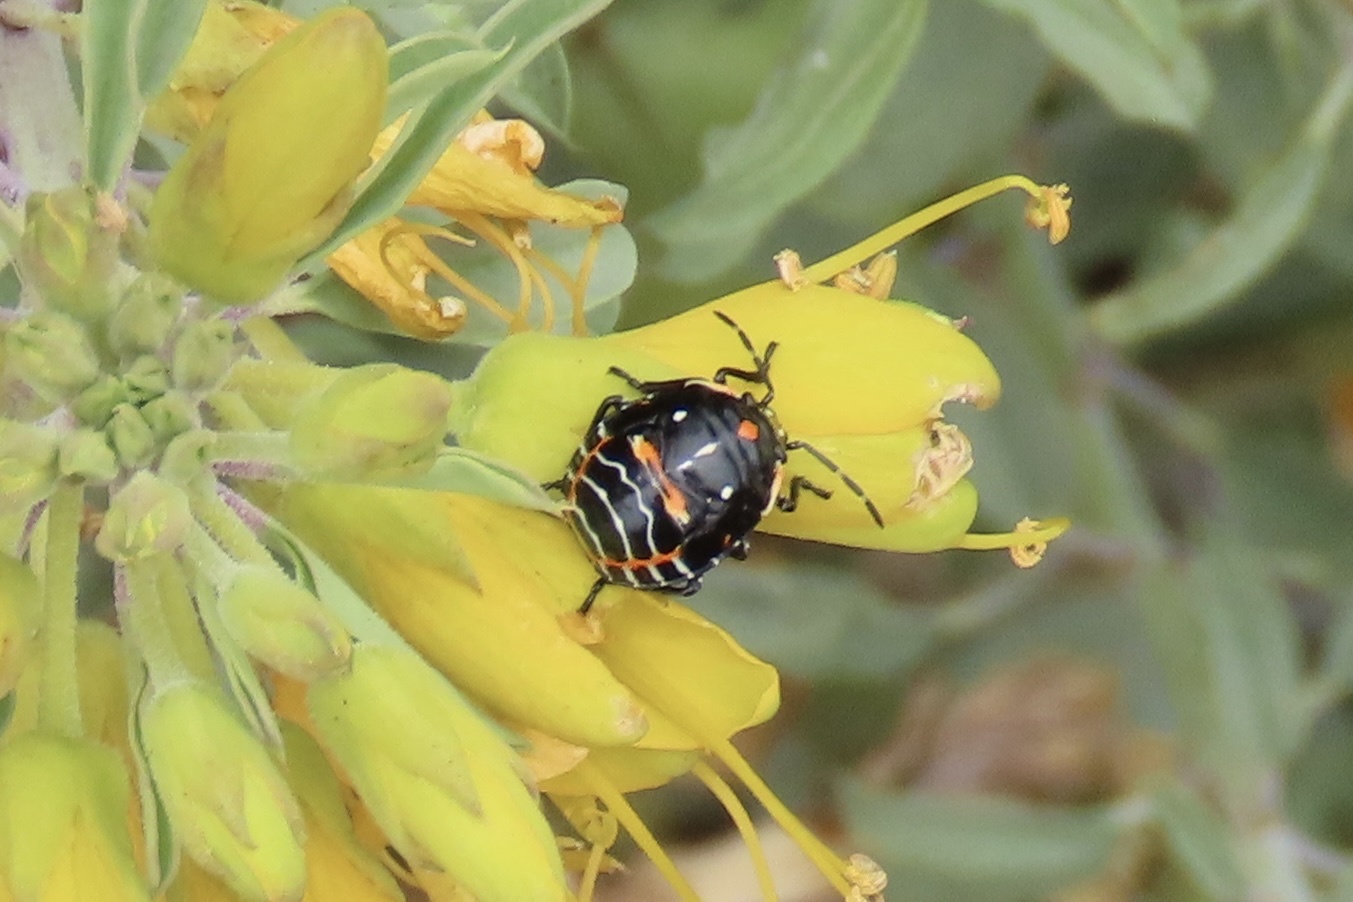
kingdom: Animalia
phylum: Arthropoda
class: Insecta
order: Hemiptera
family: Pentatomidae
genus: Murgantia
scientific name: Murgantia histrionica
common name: Harlequin bug
